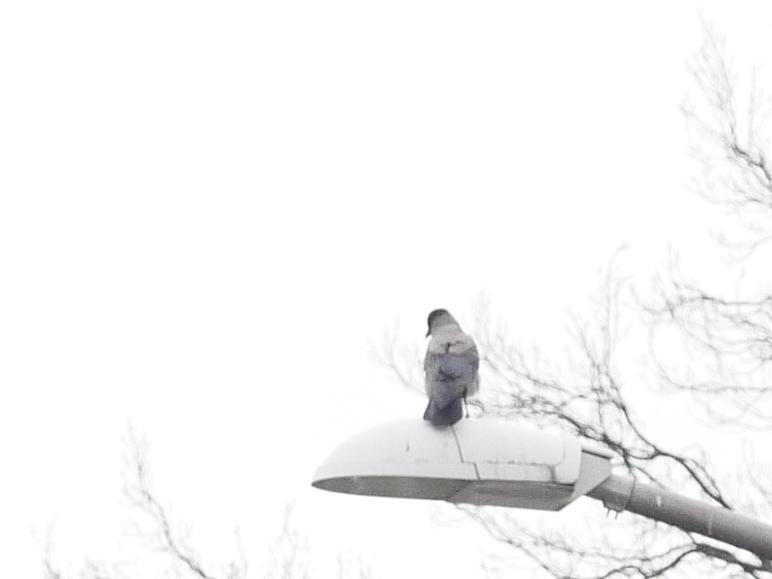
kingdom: Animalia
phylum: Chordata
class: Aves
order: Passeriformes
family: Corvidae
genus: Corvus
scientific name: Corvus cornix
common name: Hooded crow
